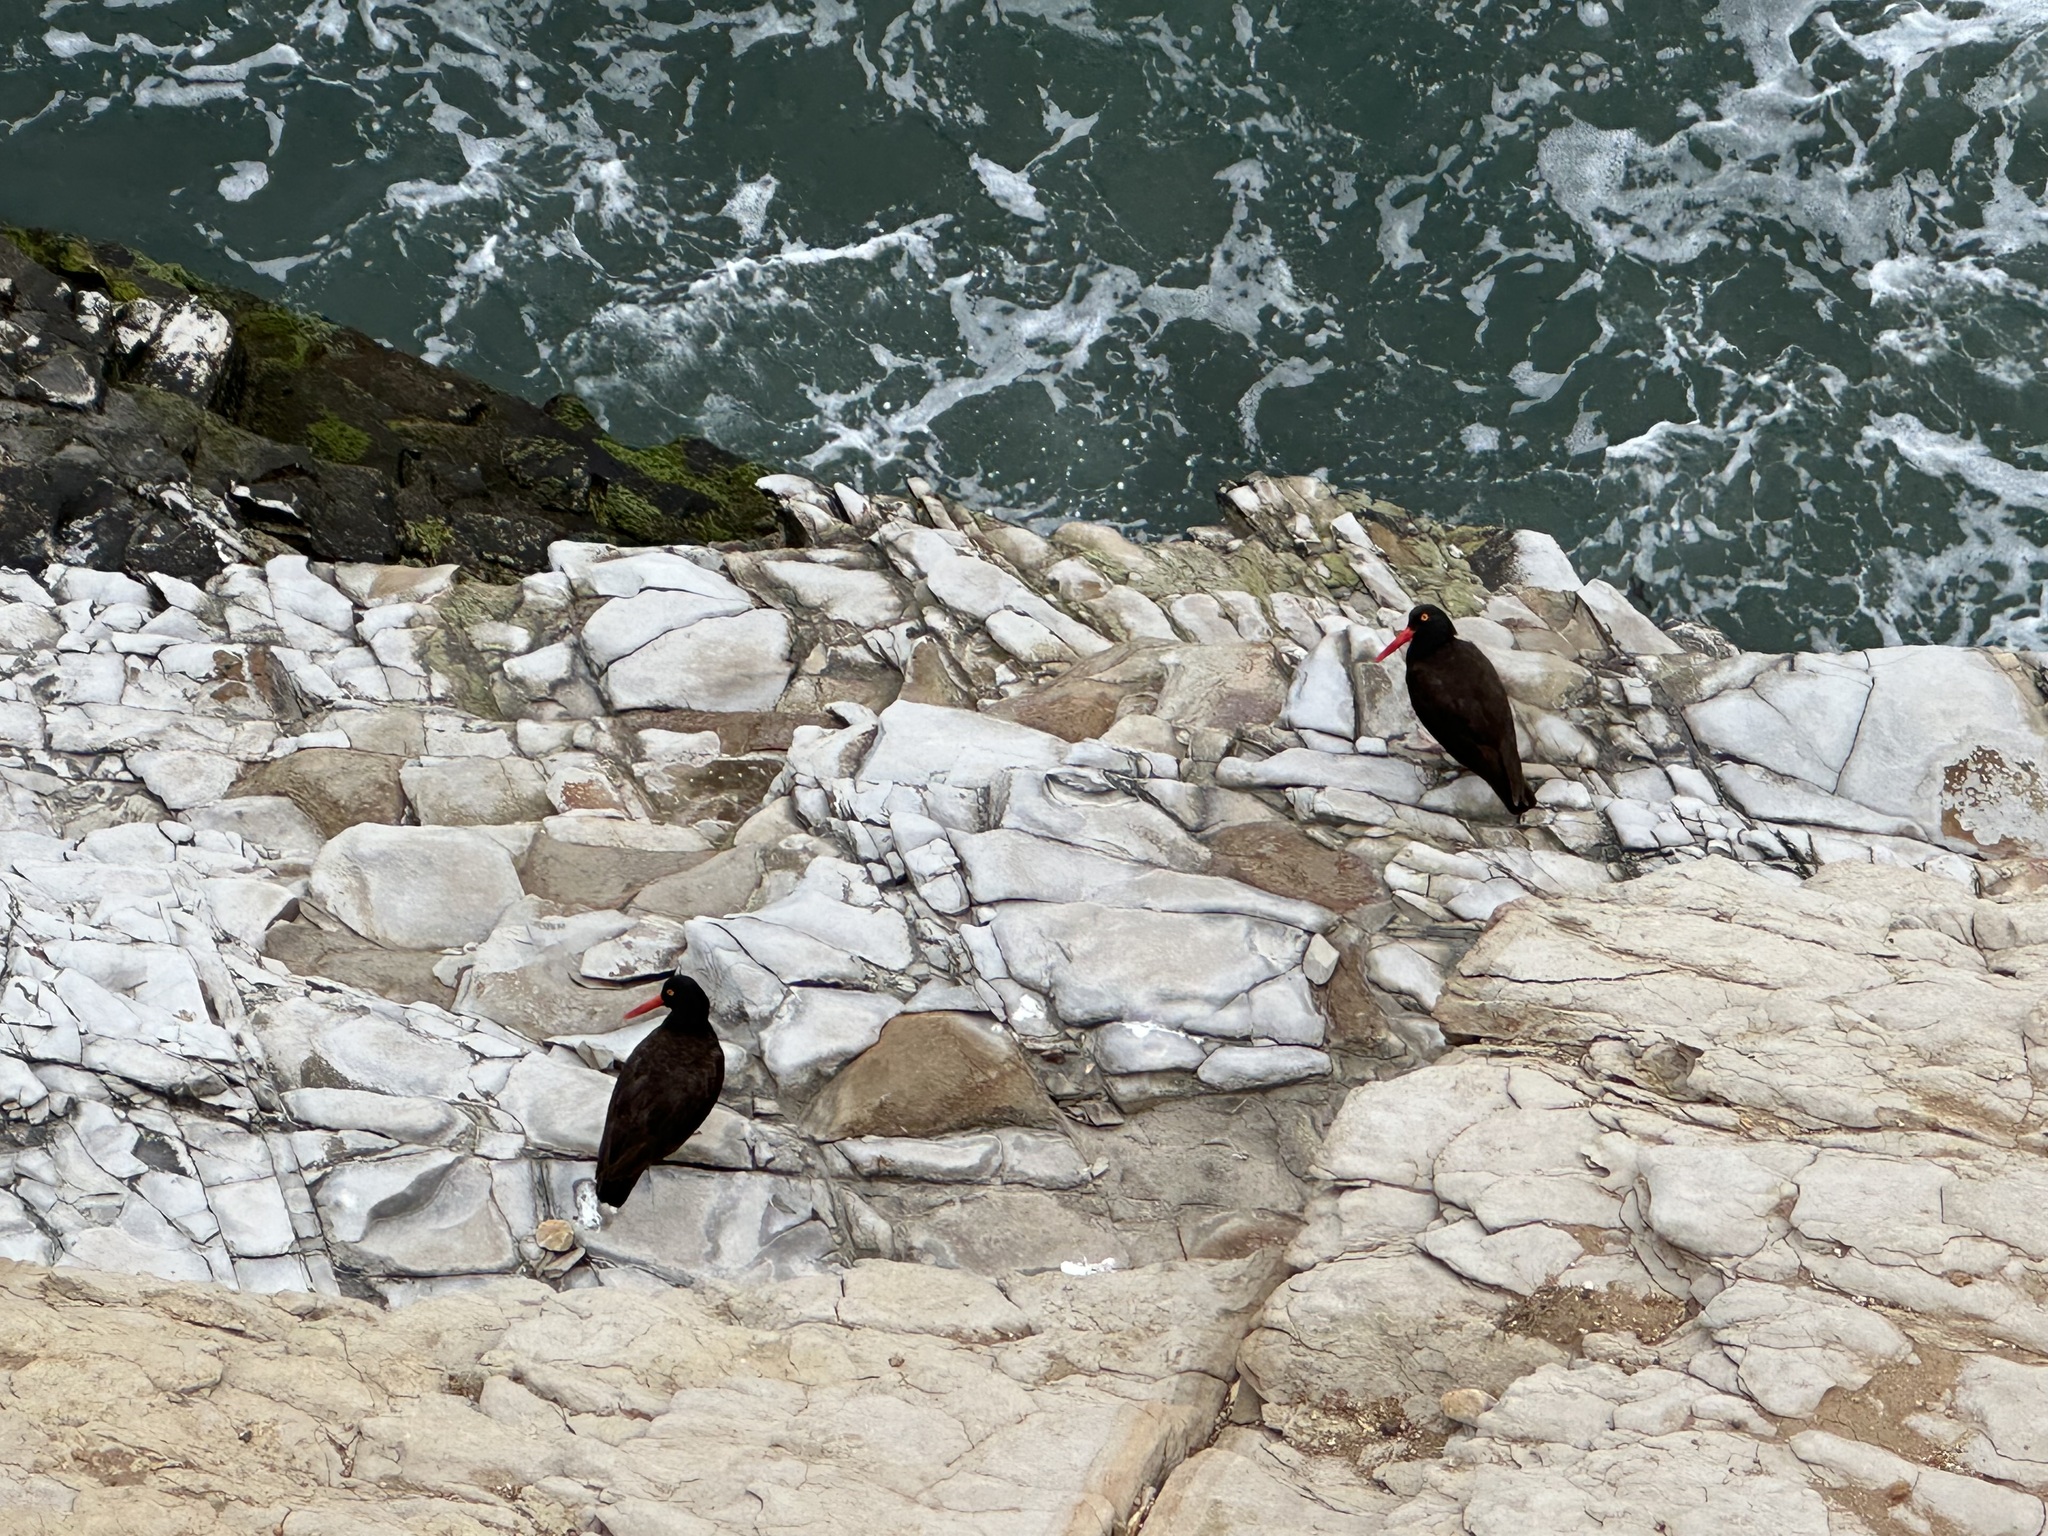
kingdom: Animalia
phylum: Chordata
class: Aves
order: Charadriiformes
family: Haematopodidae
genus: Haematopus
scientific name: Haematopus bachmani
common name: Black oystercatcher
